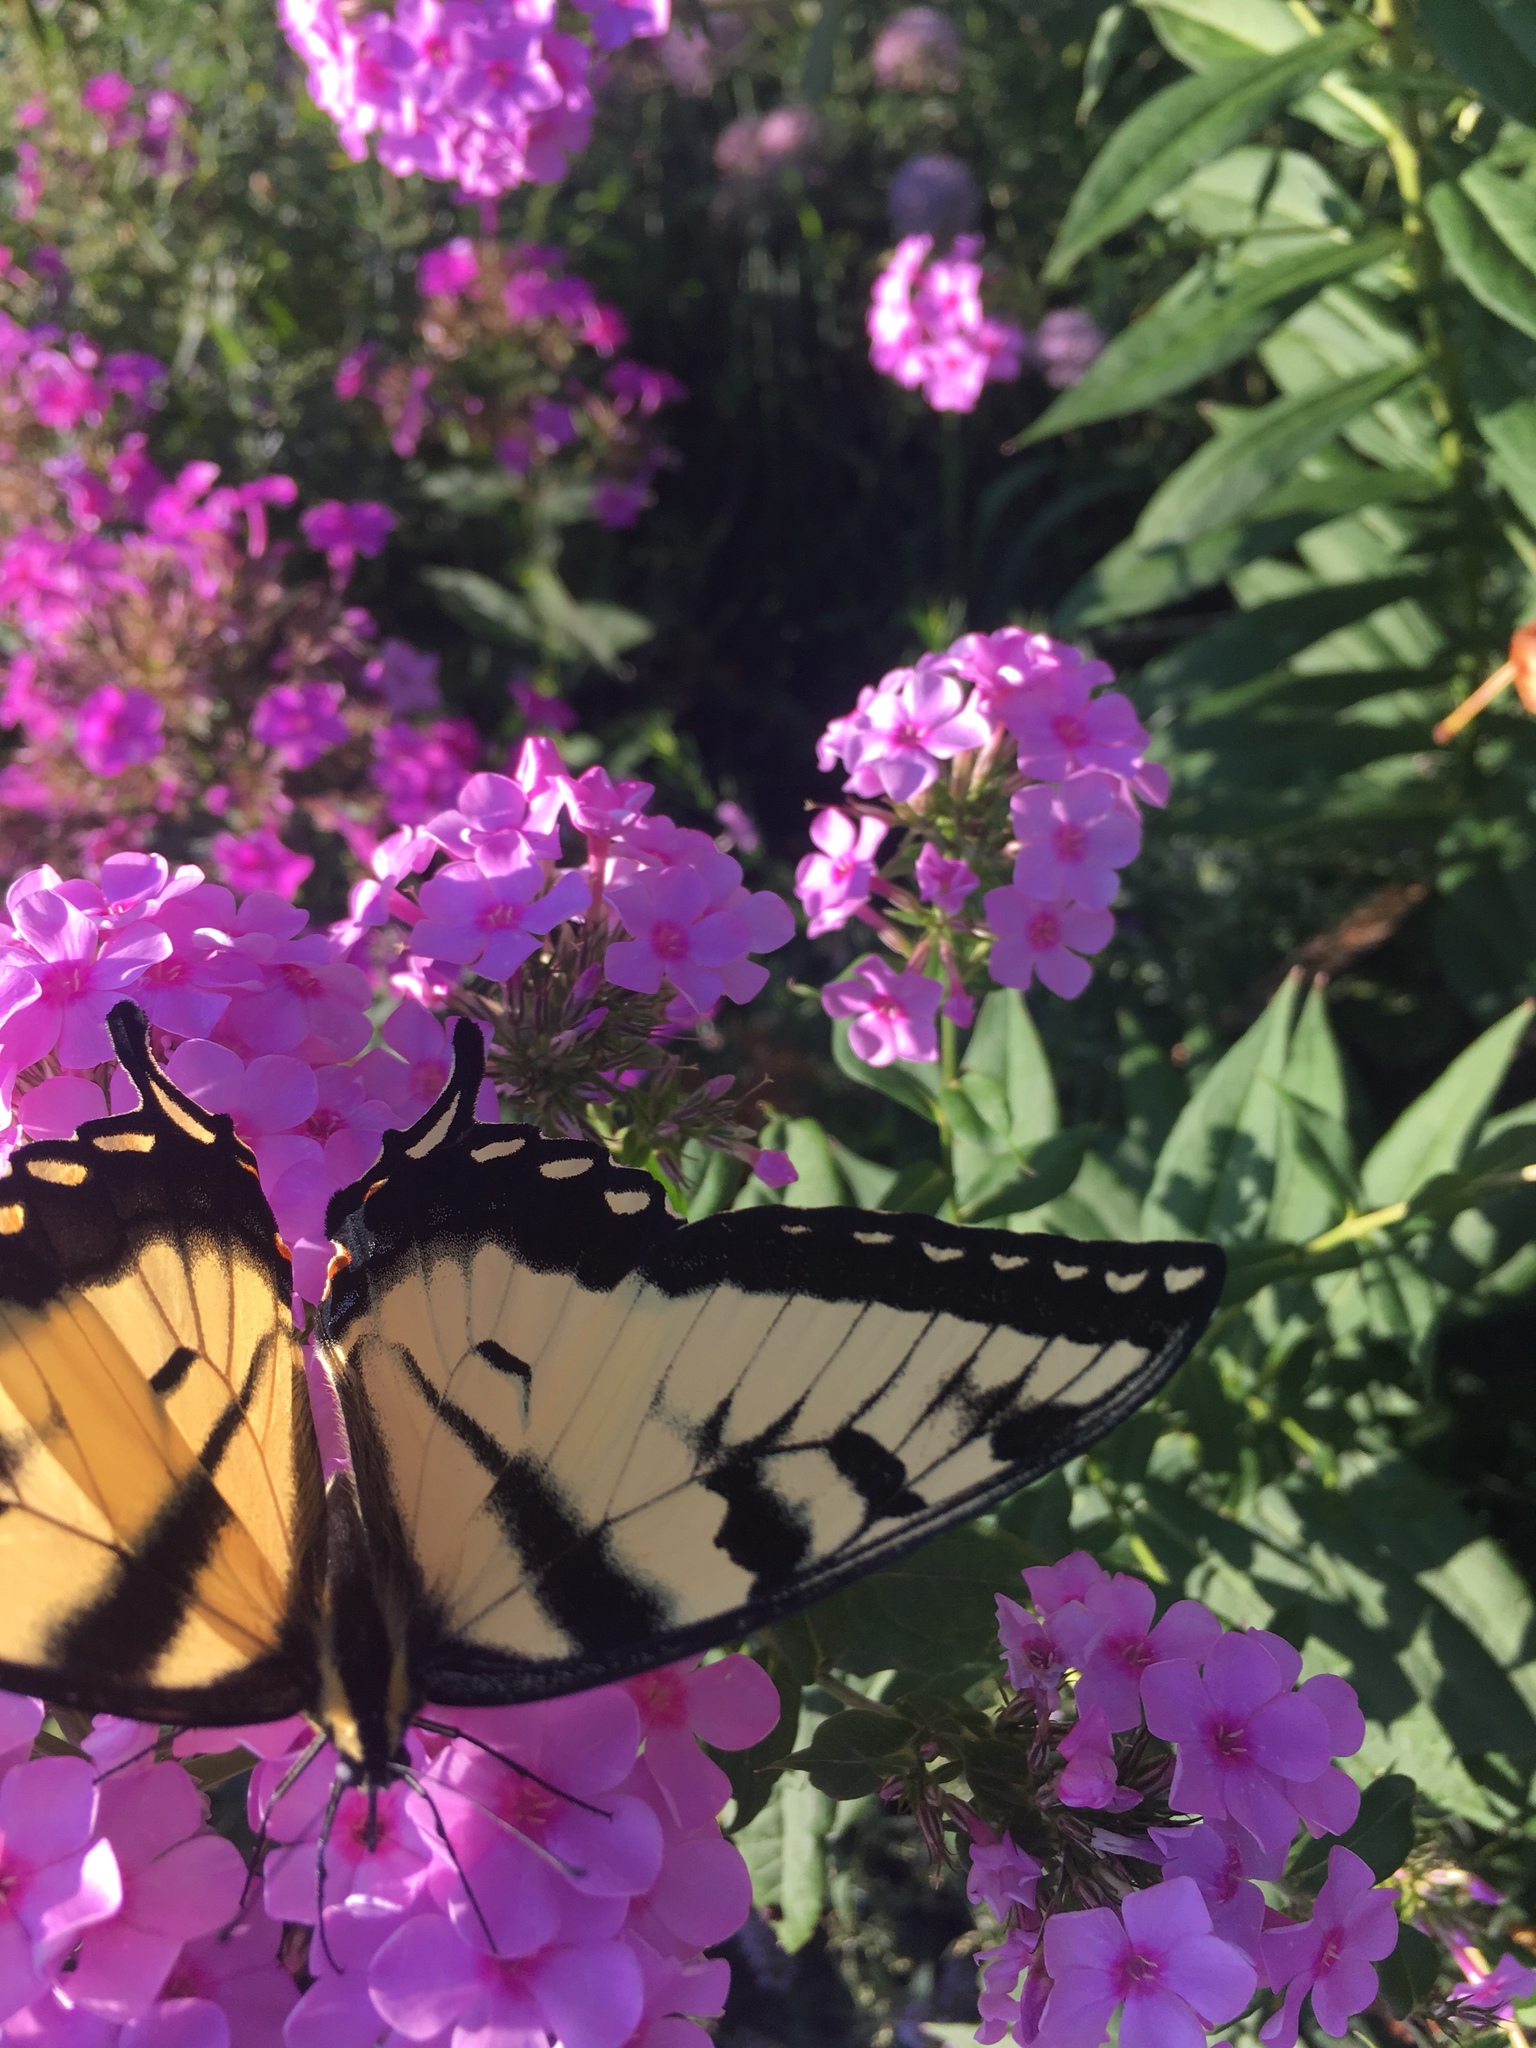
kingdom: Animalia
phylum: Arthropoda
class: Insecta
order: Lepidoptera
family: Papilionidae
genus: Papilio
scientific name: Papilio glaucus
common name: Tiger swallowtail
